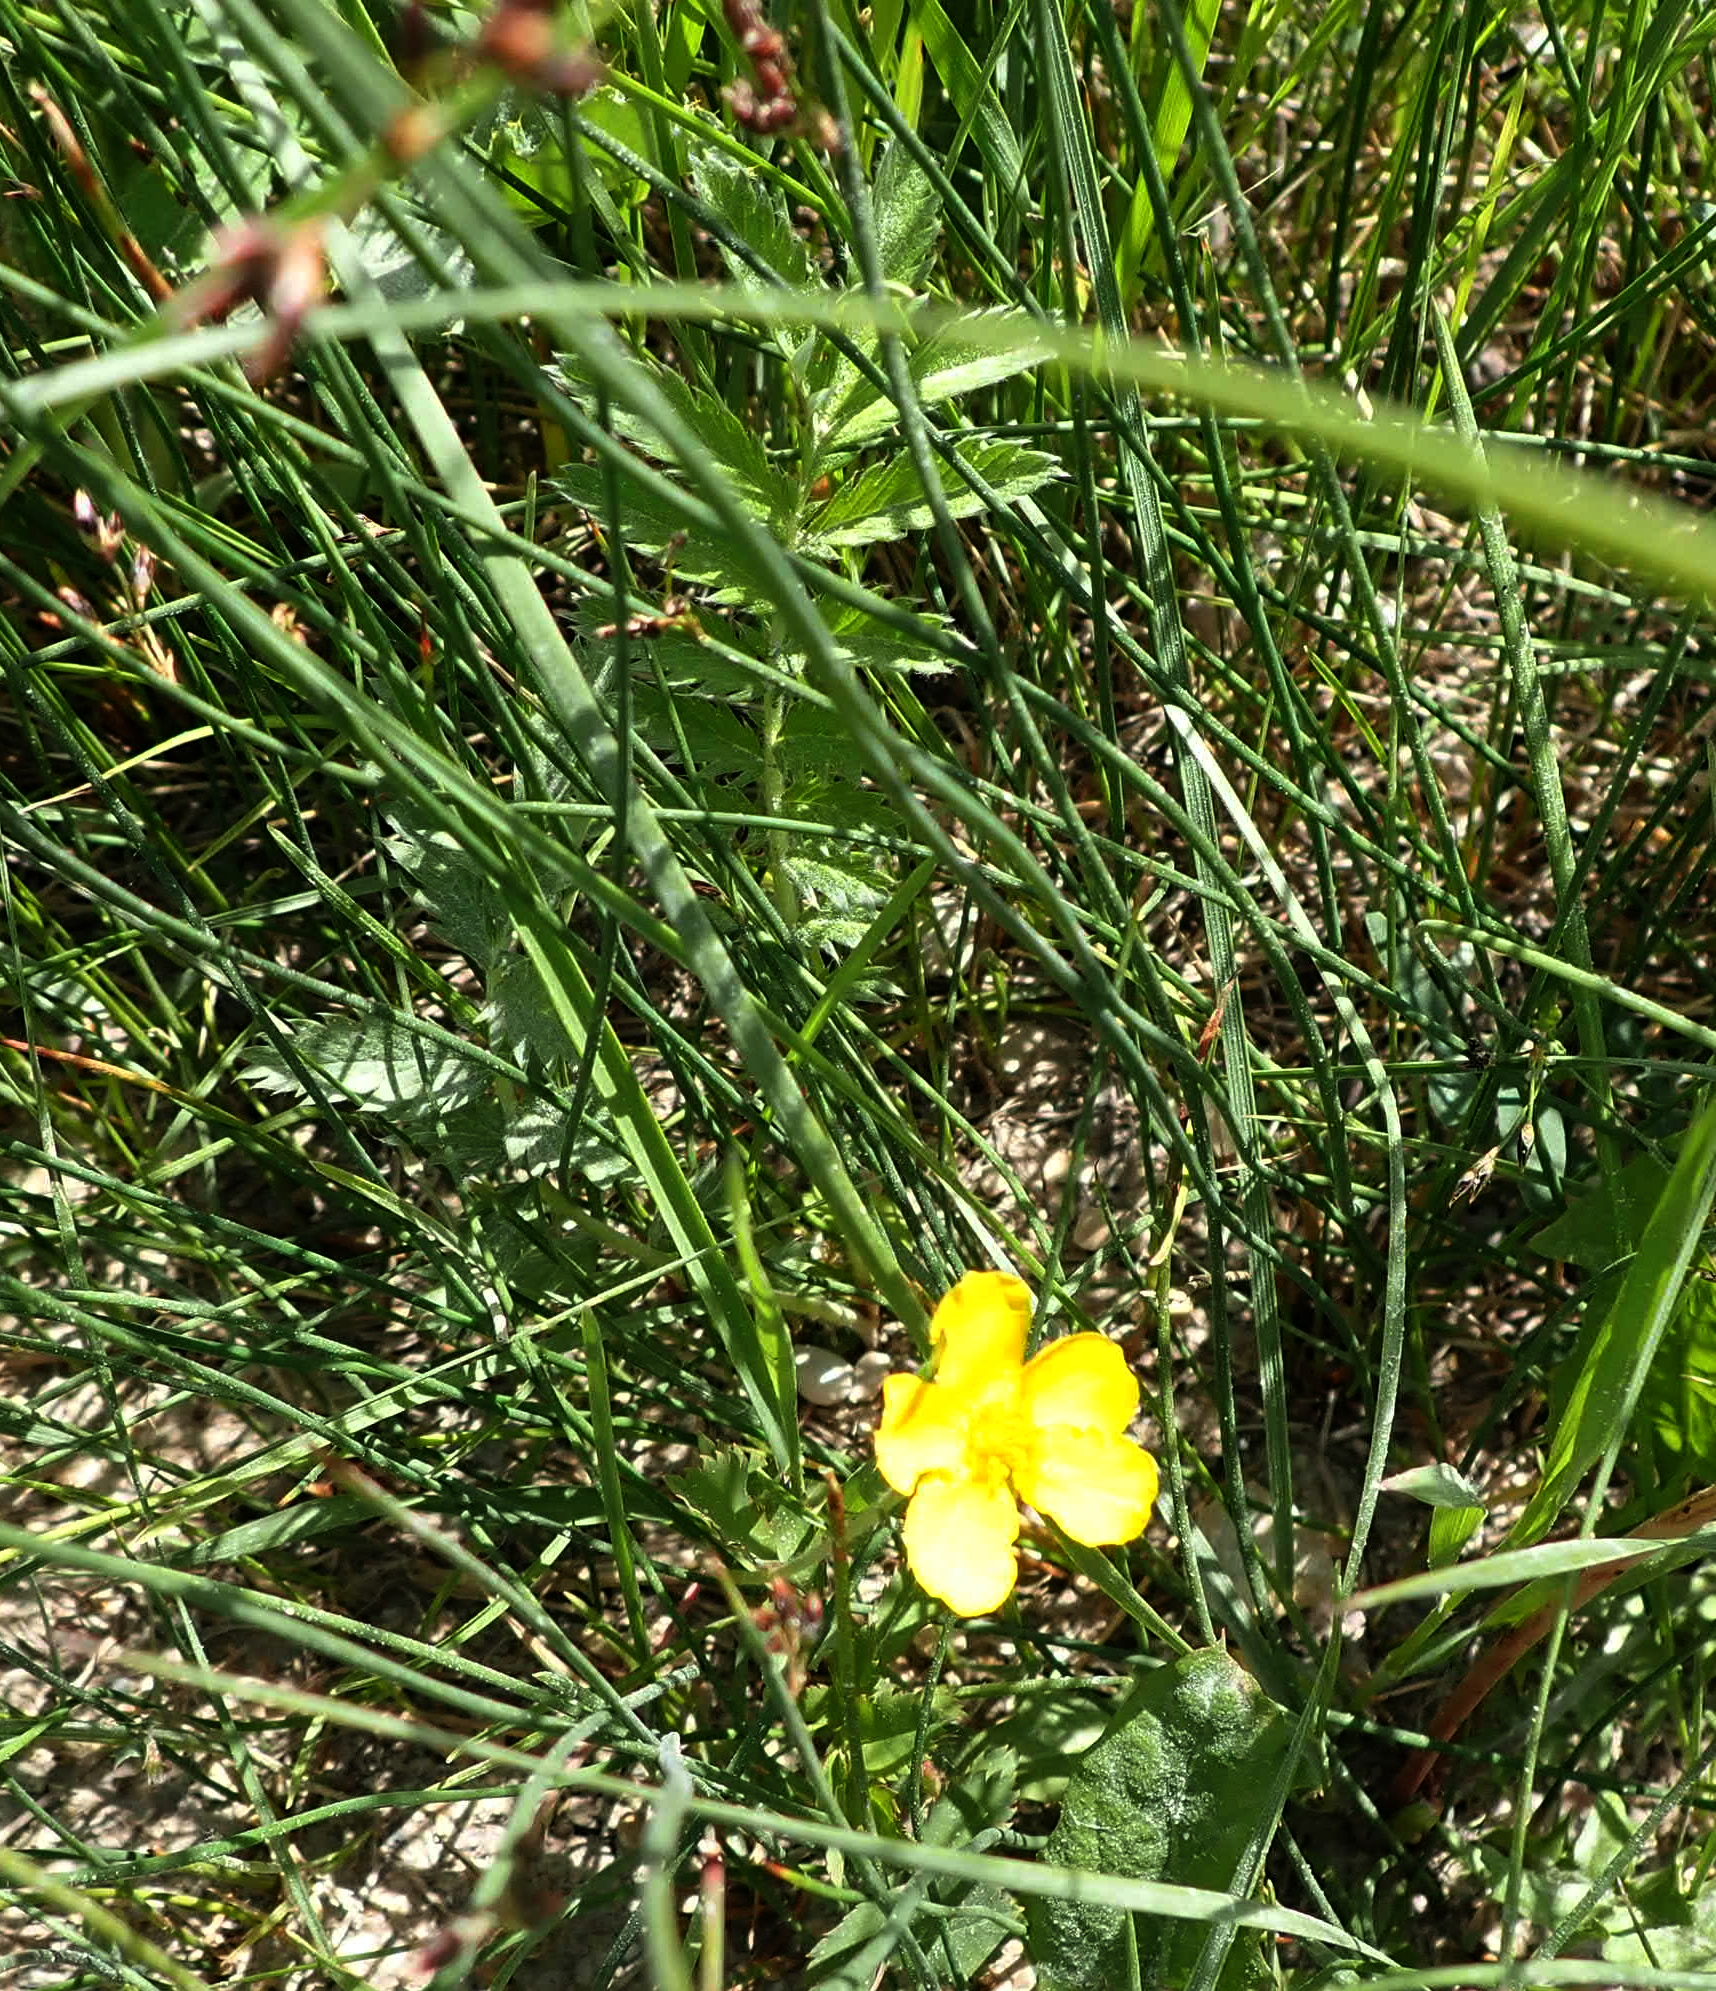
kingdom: Plantae
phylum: Tracheophyta
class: Magnoliopsida
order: Rosales
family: Rosaceae
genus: Argentina
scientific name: Argentina anserina
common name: Common silverweed
